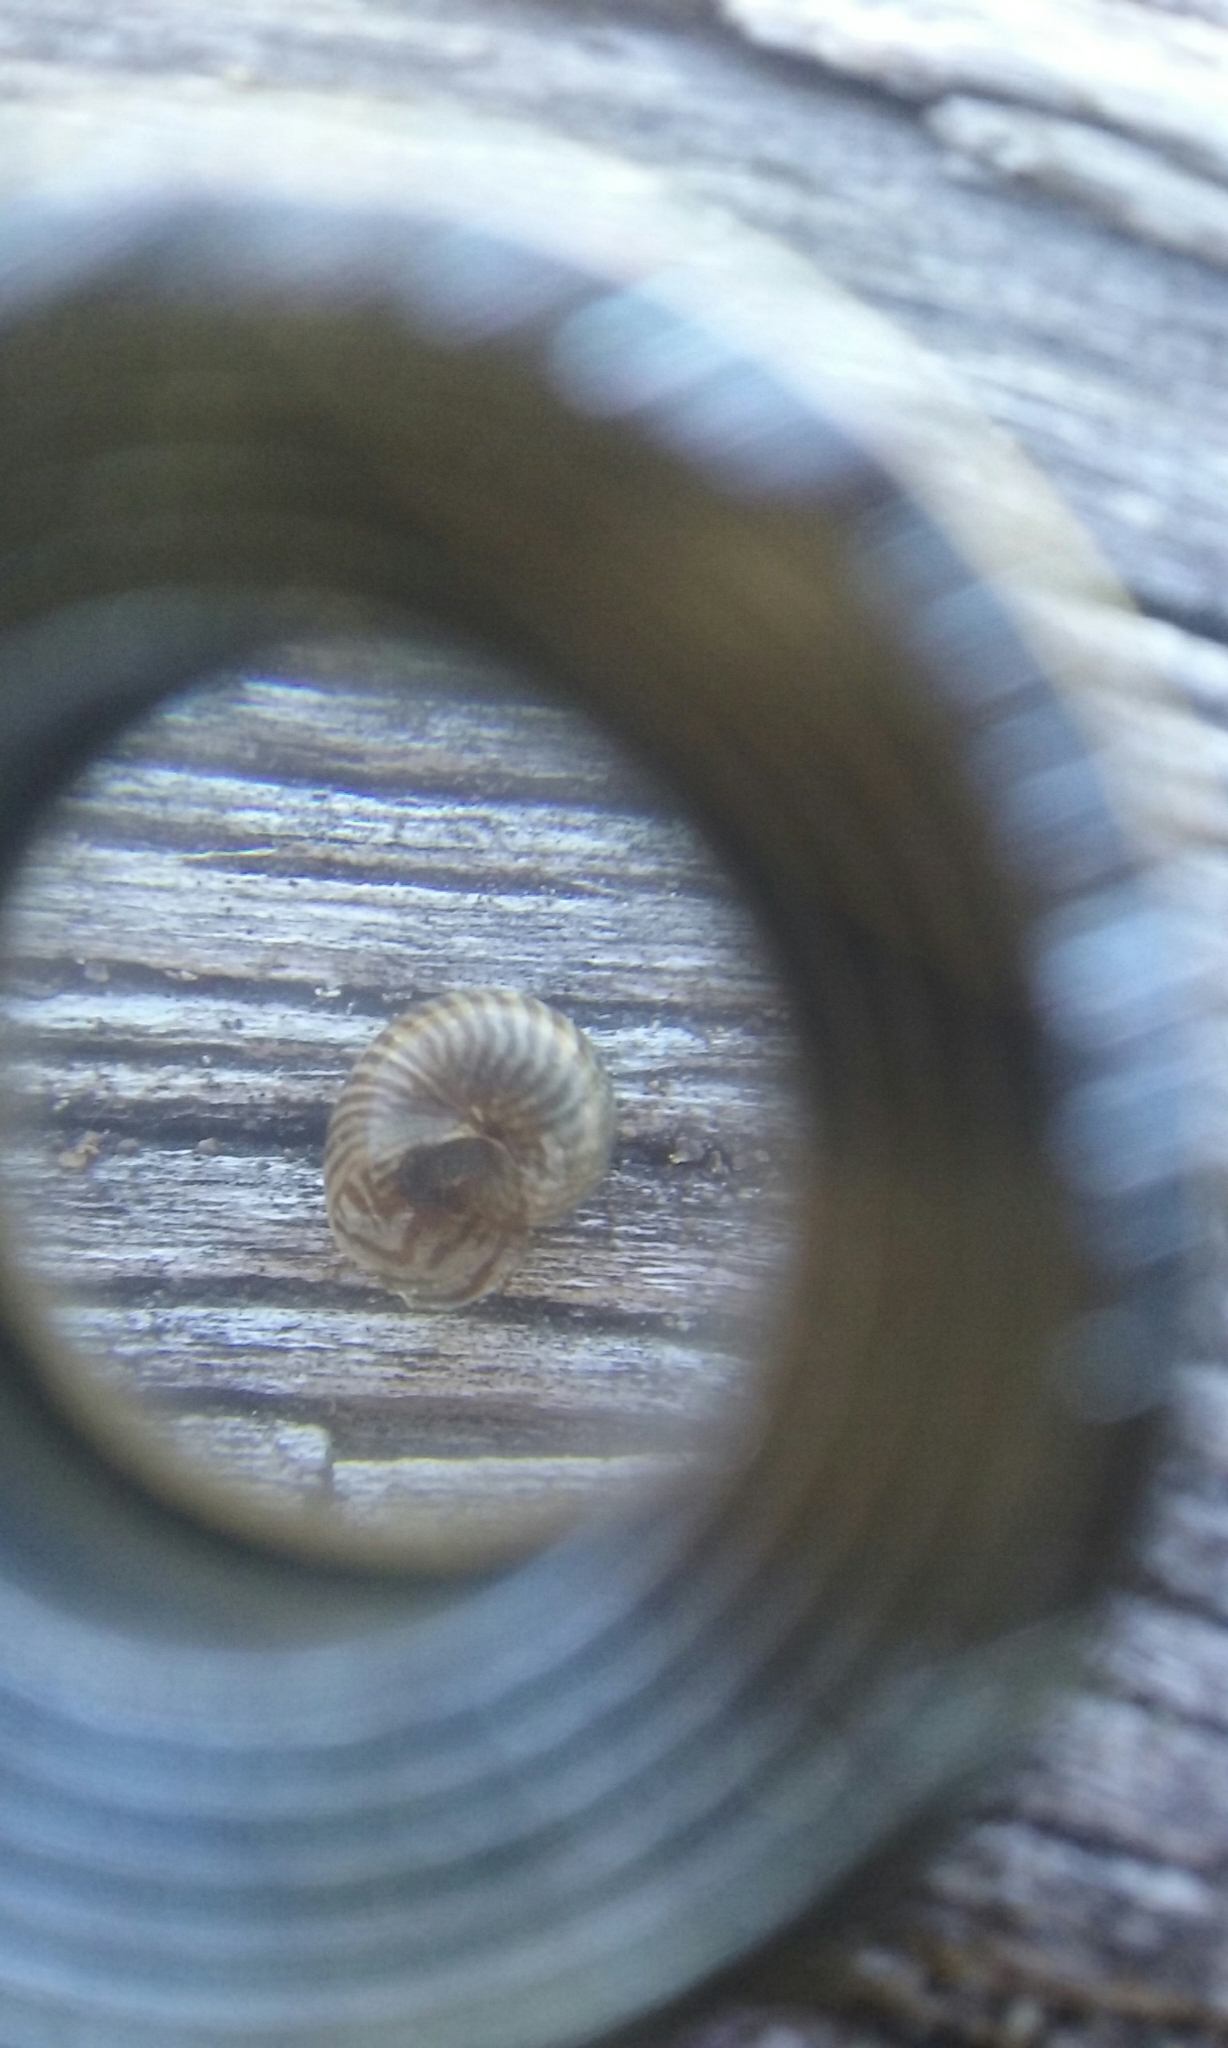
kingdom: Animalia
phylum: Mollusca
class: Gastropoda
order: Stylommatophora
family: Charopidae
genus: Flammulina
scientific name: Flammulina zebra
